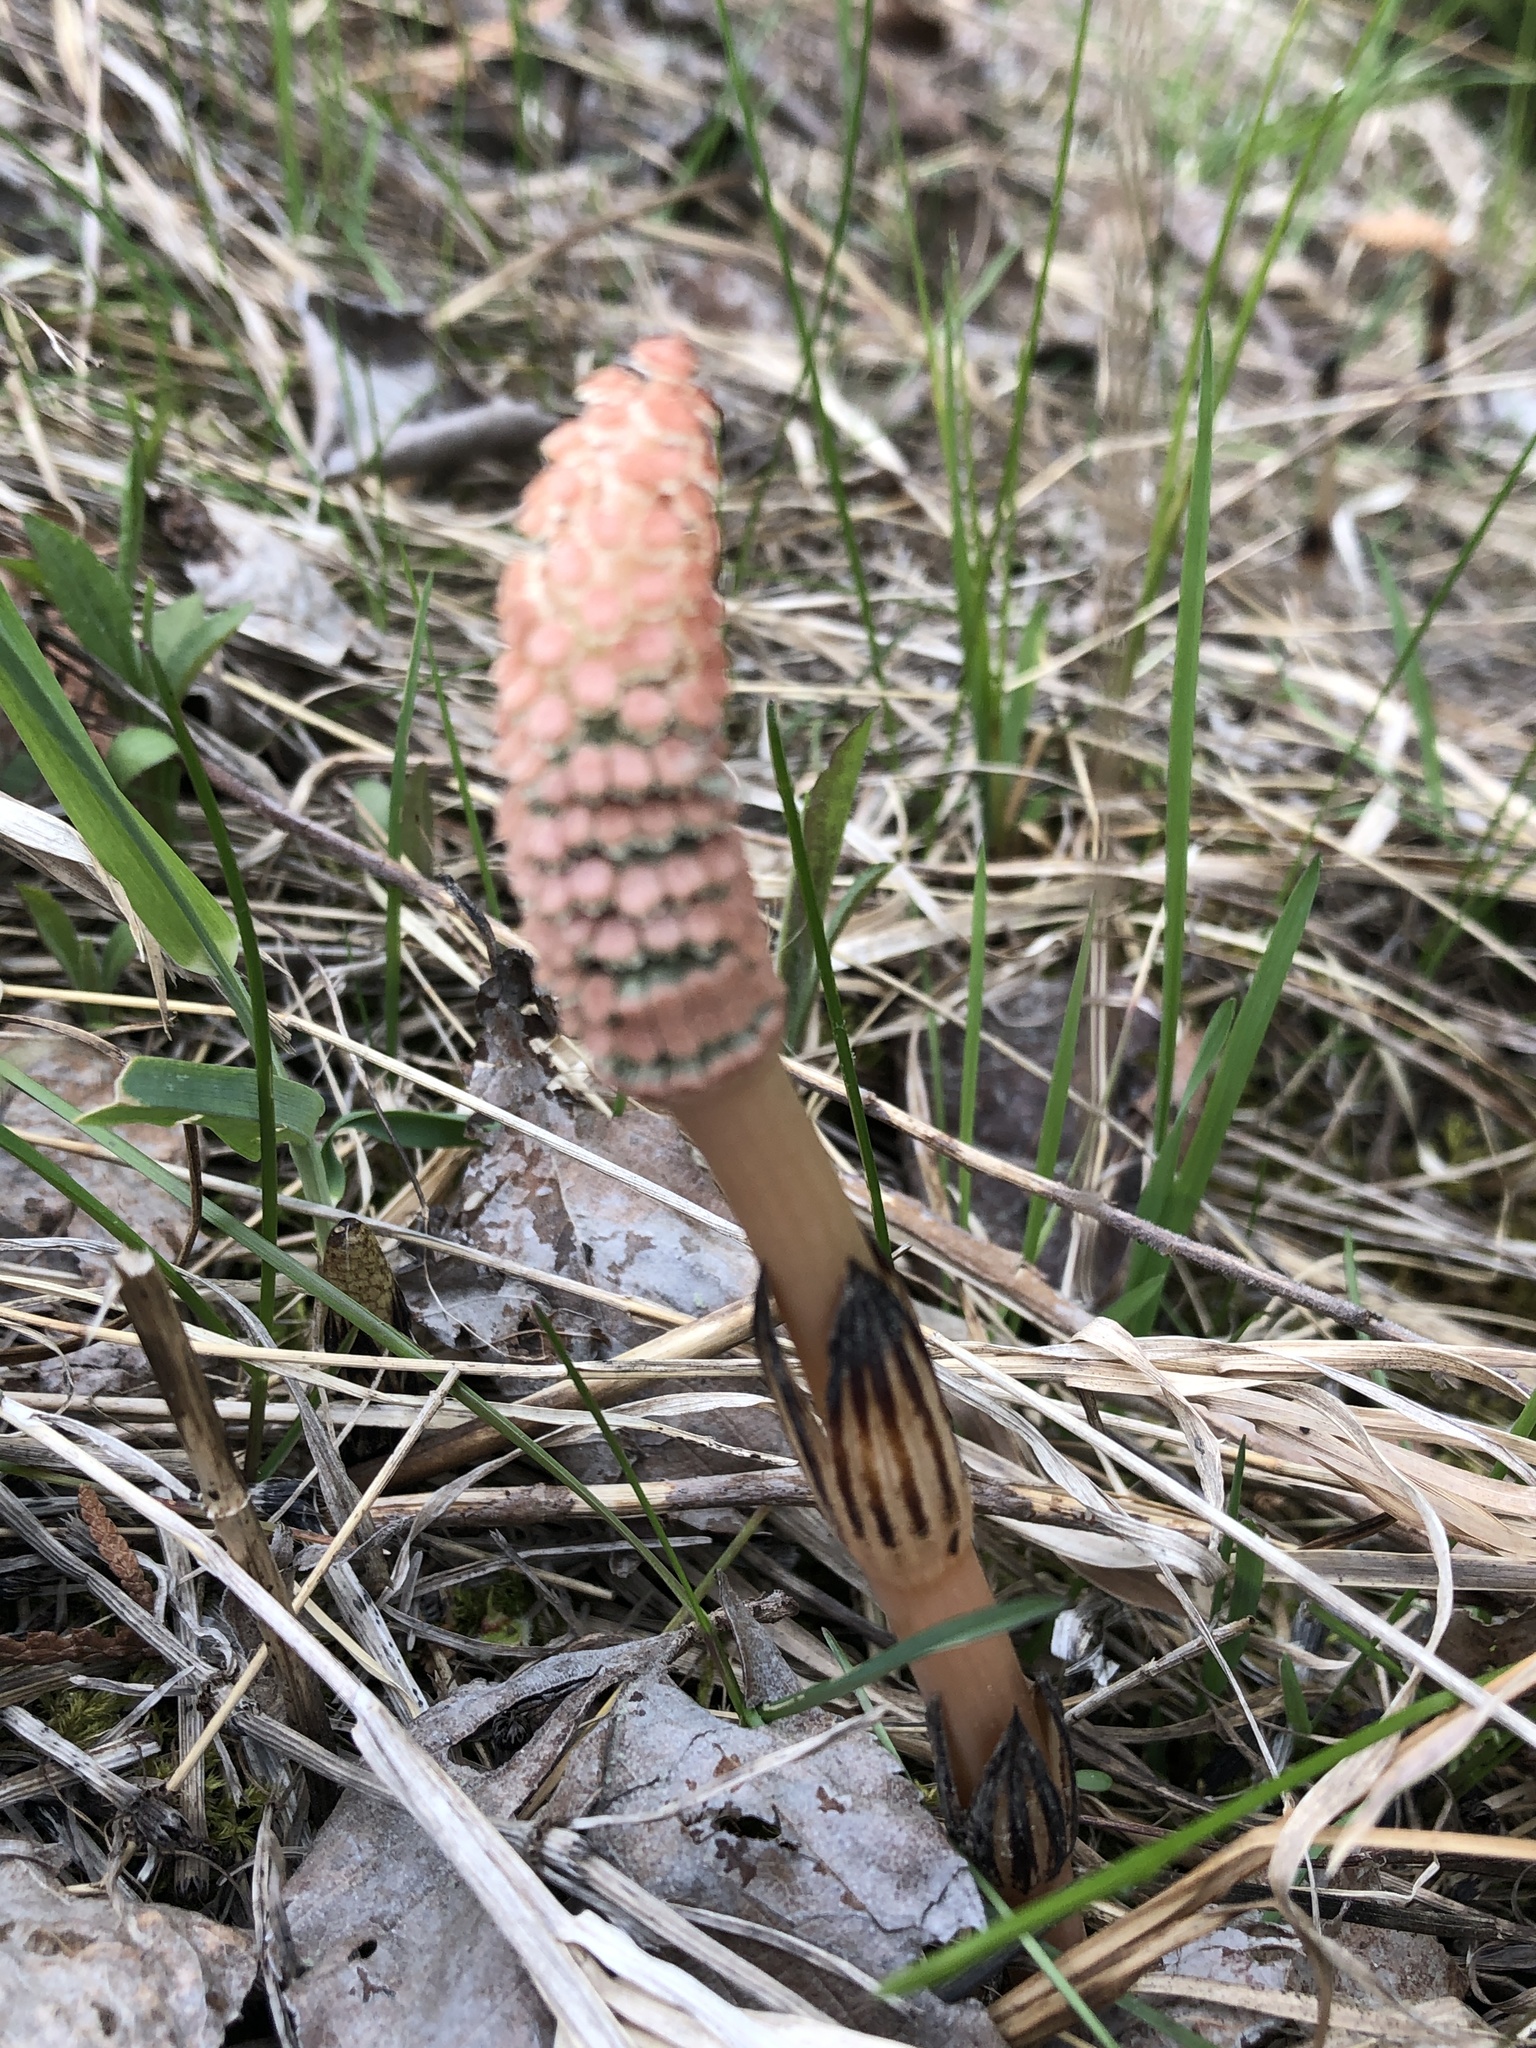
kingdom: Plantae
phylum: Tracheophyta
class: Polypodiopsida
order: Equisetales
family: Equisetaceae
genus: Equisetum
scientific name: Equisetum arvense
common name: Field horsetail
